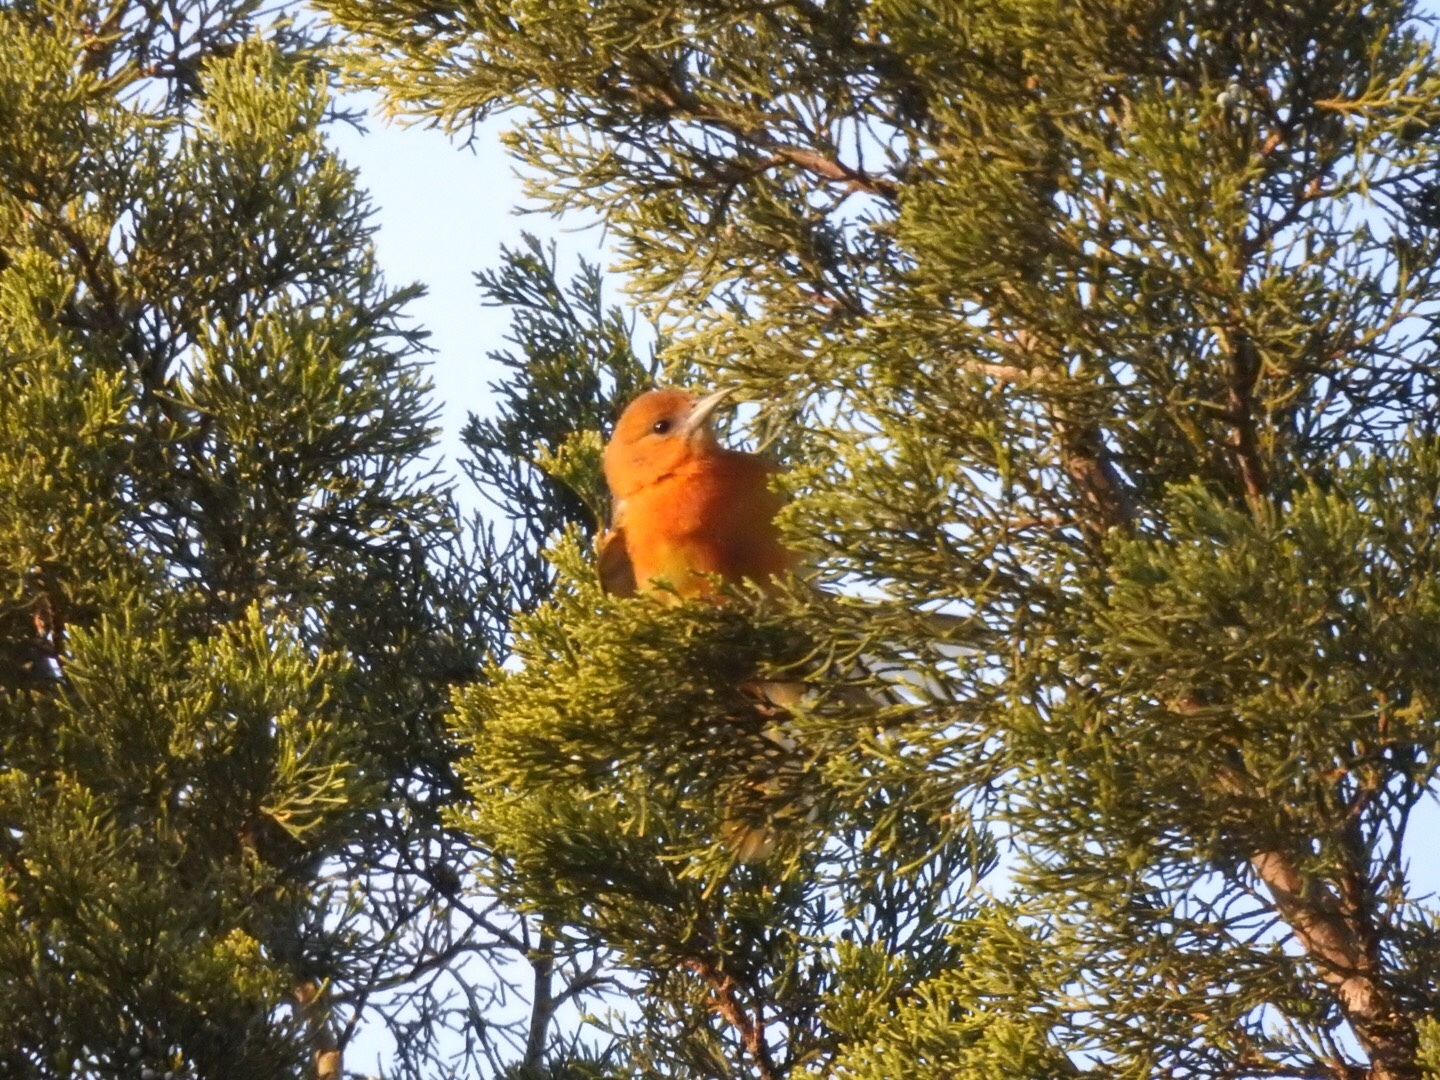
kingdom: Animalia
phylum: Chordata
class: Aves
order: Passeriformes
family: Icteridae
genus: Icterus
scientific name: Icterus galbula
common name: Baltimore oriole
